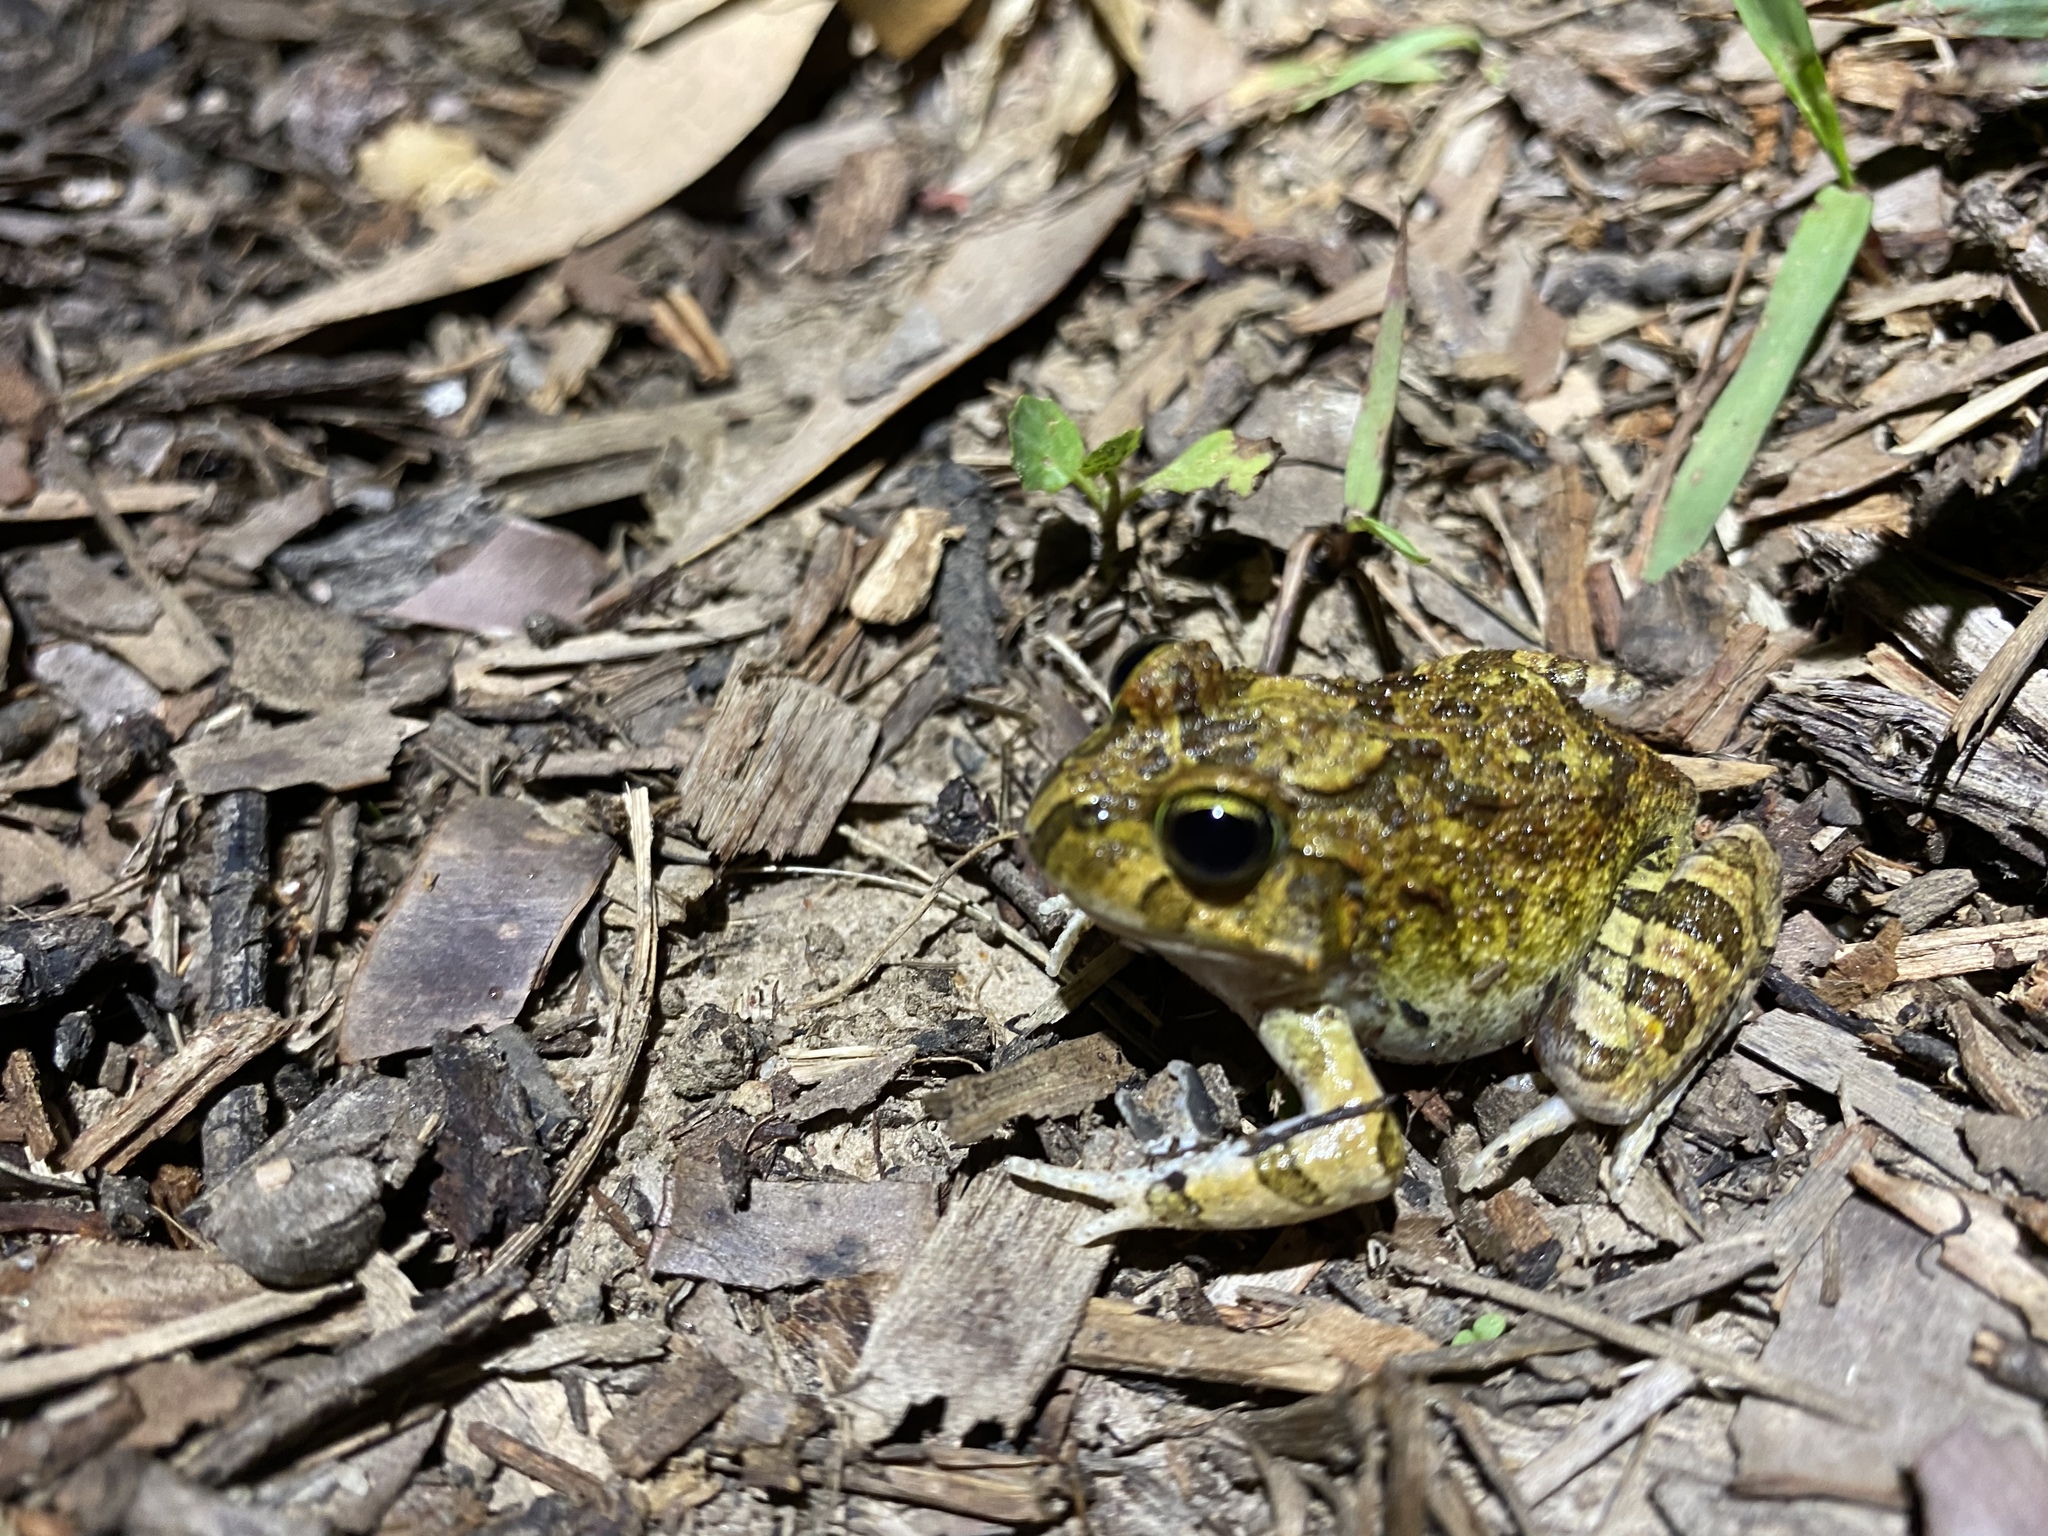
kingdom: Animalia
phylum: Chordata
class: Amphibia
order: Anura
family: Limnodynastidae
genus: Platyplectrum
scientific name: Platyplectrum ornatum
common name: Ornate burrowing frog
